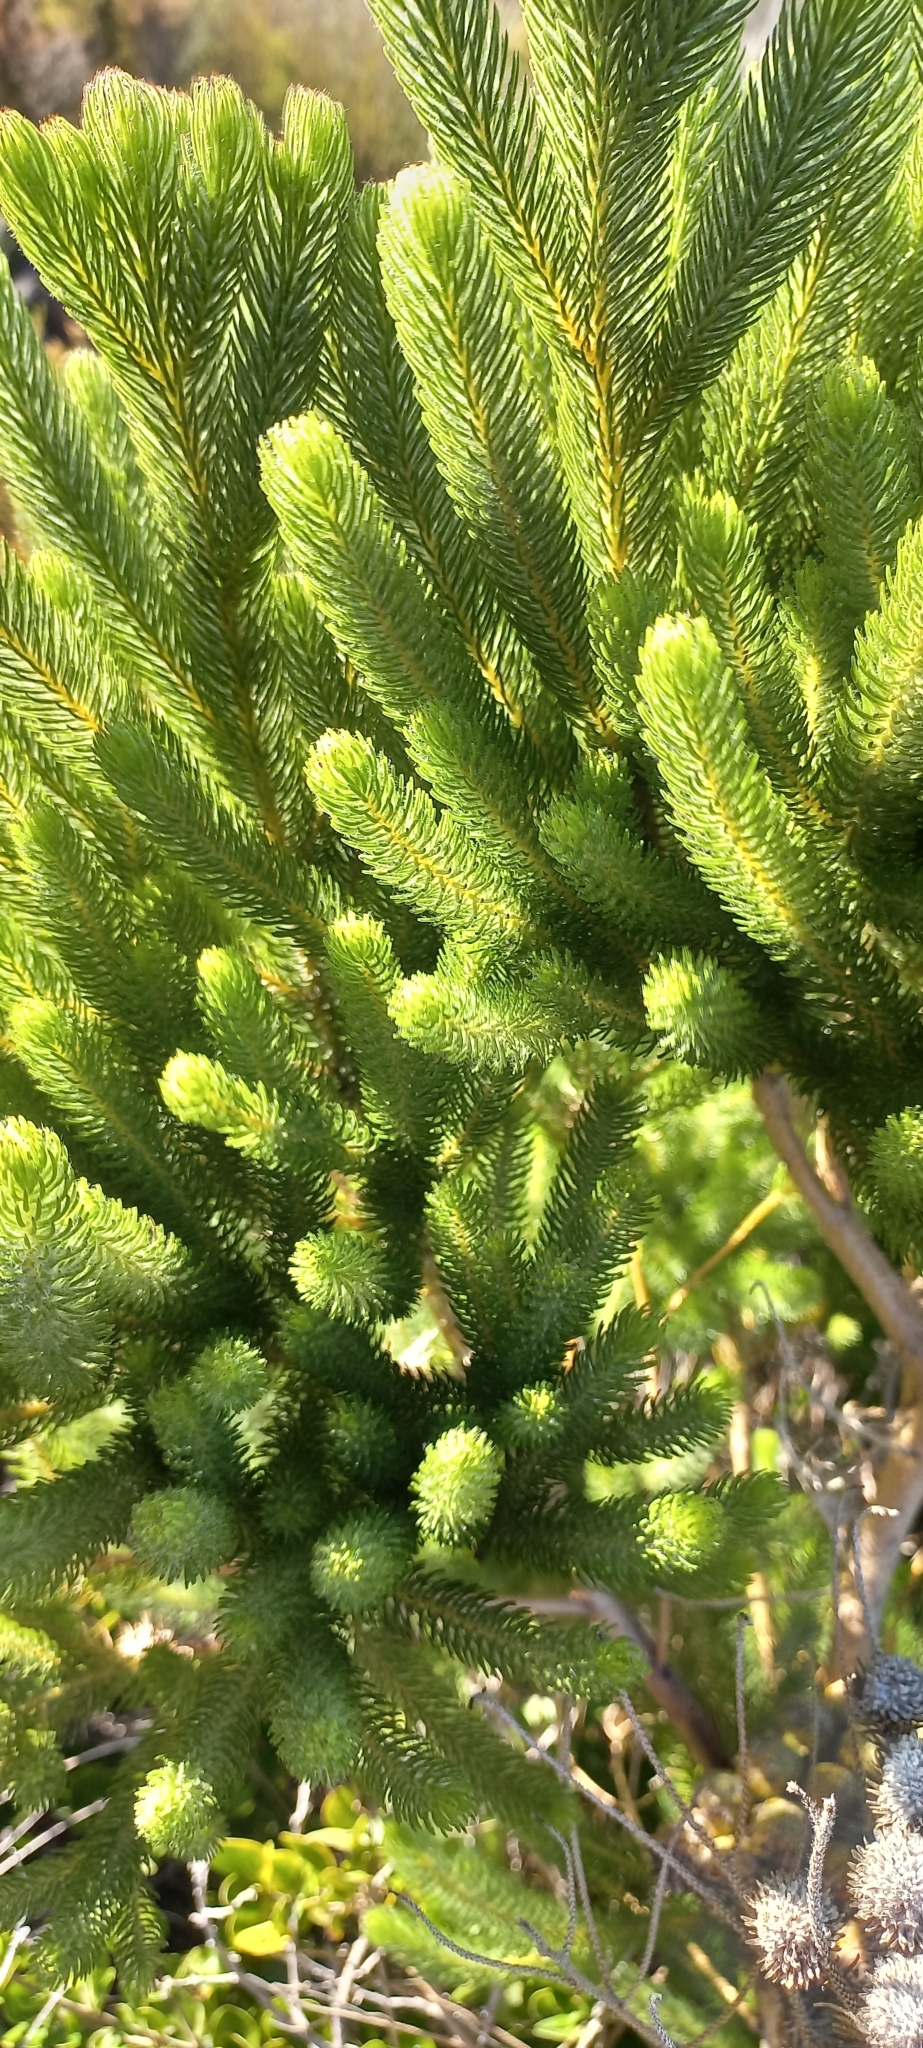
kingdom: Plantae
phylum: Tracheophyta
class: Magnoliopsida
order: Bruniales
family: Bruniaceae
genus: Berzelia
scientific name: Berzelia albiflora
